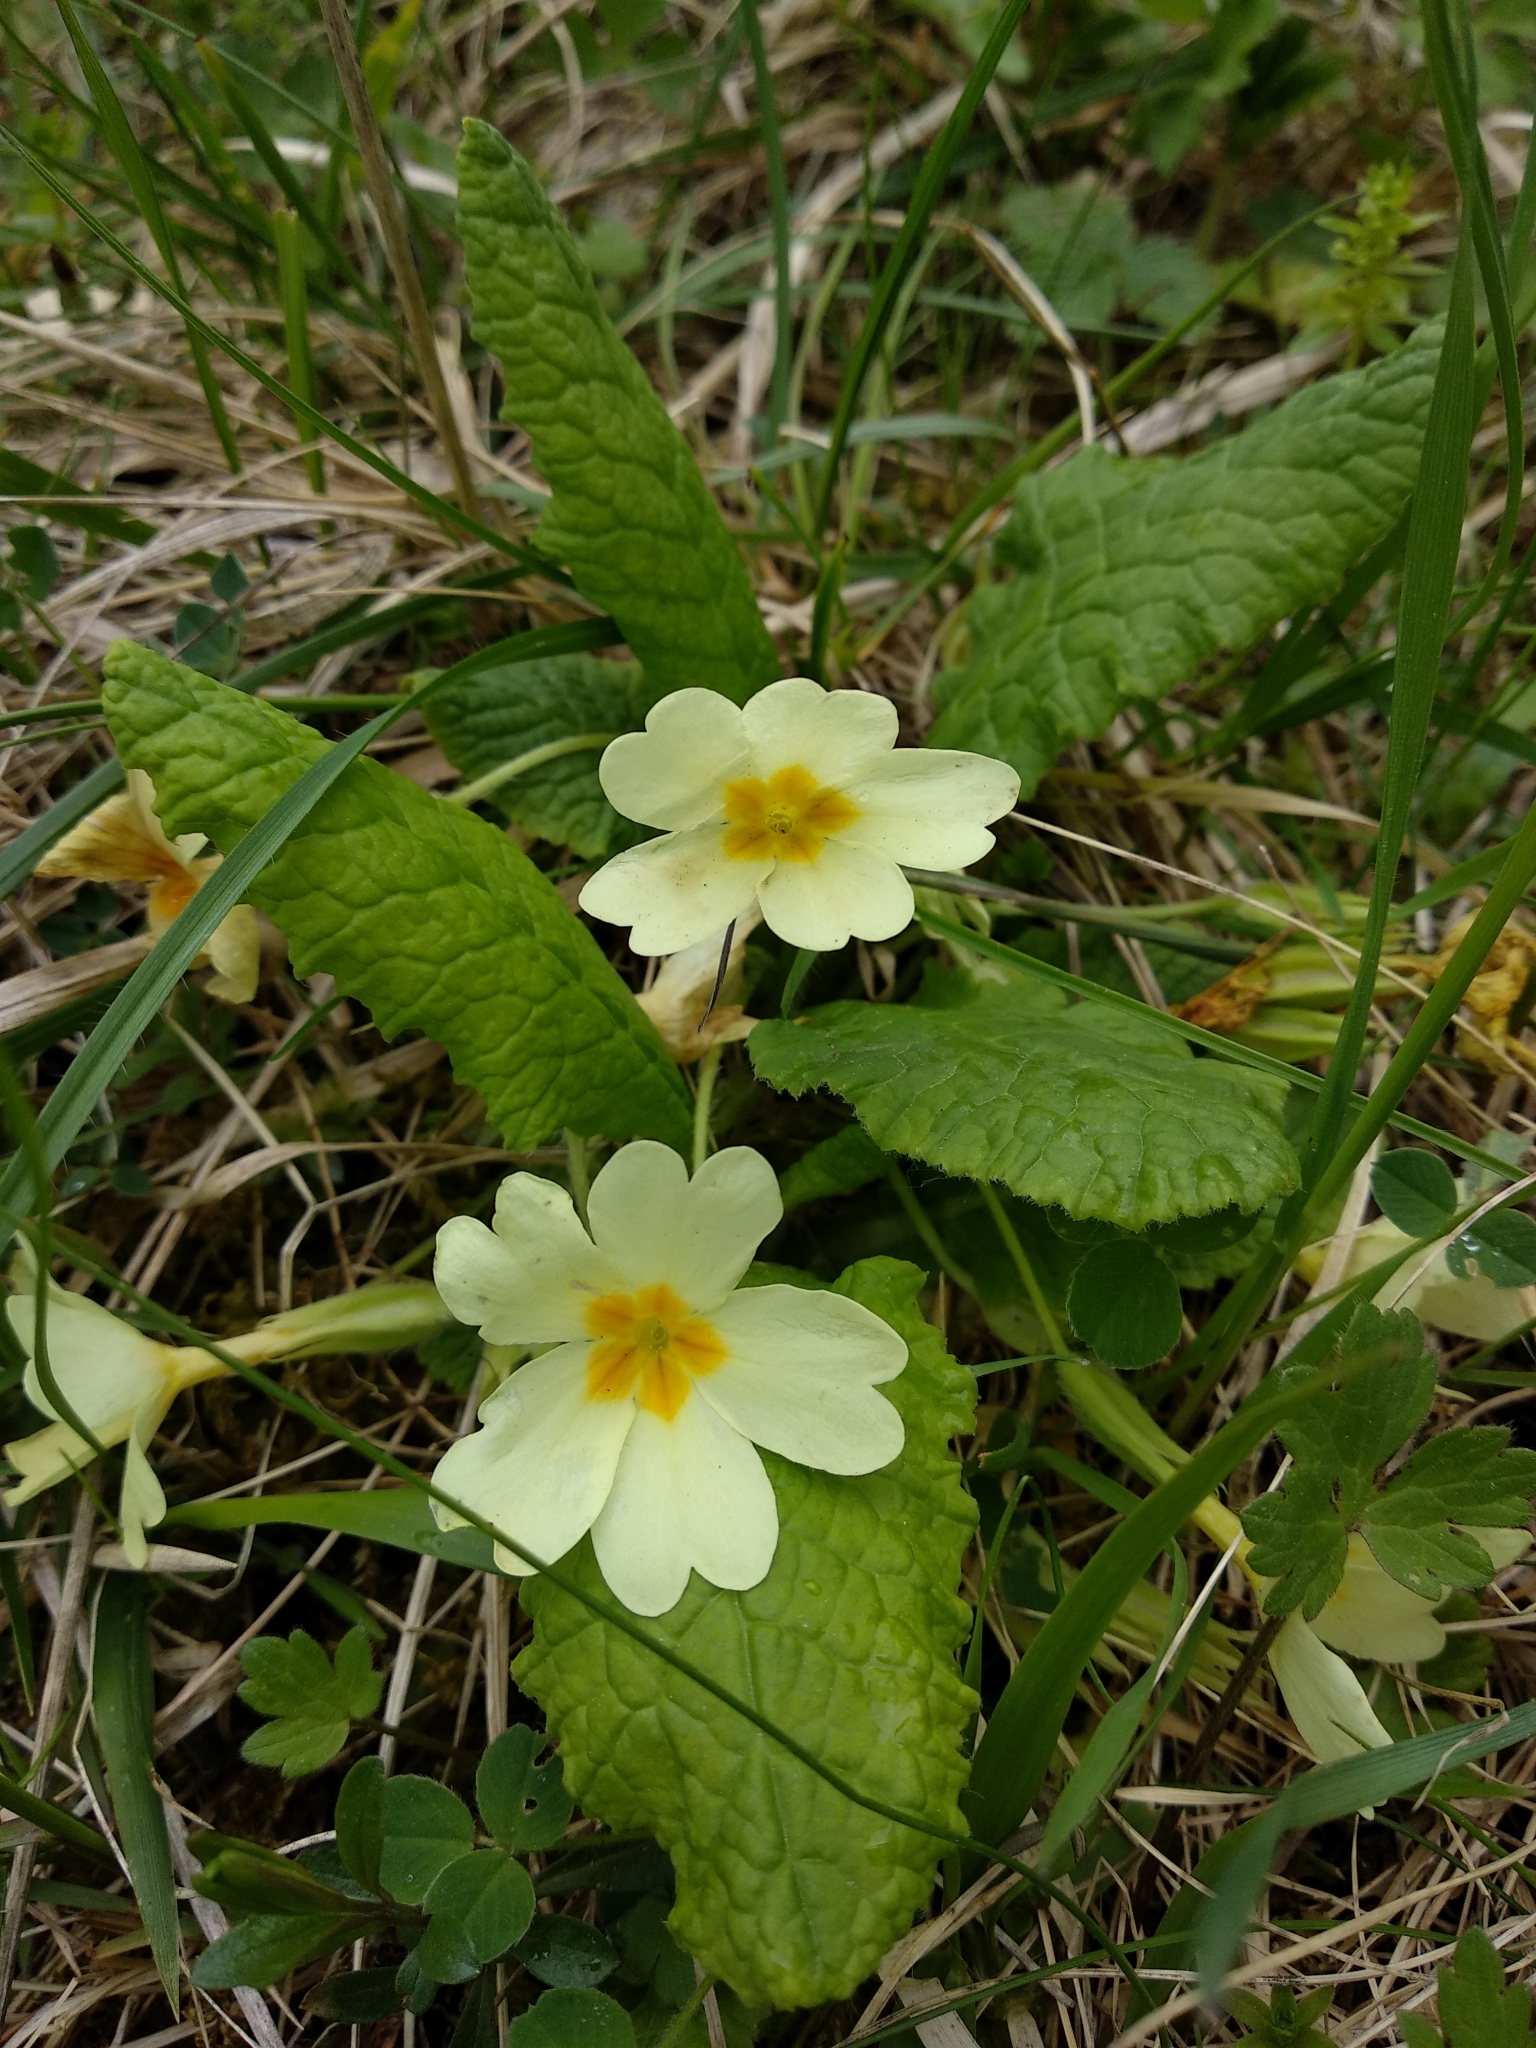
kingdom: Plantae
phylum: Tracheophyta
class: Magnoliopsida
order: Ericales
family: Primulaceae
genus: Primula
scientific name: Primula vulgaris
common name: Primrose
